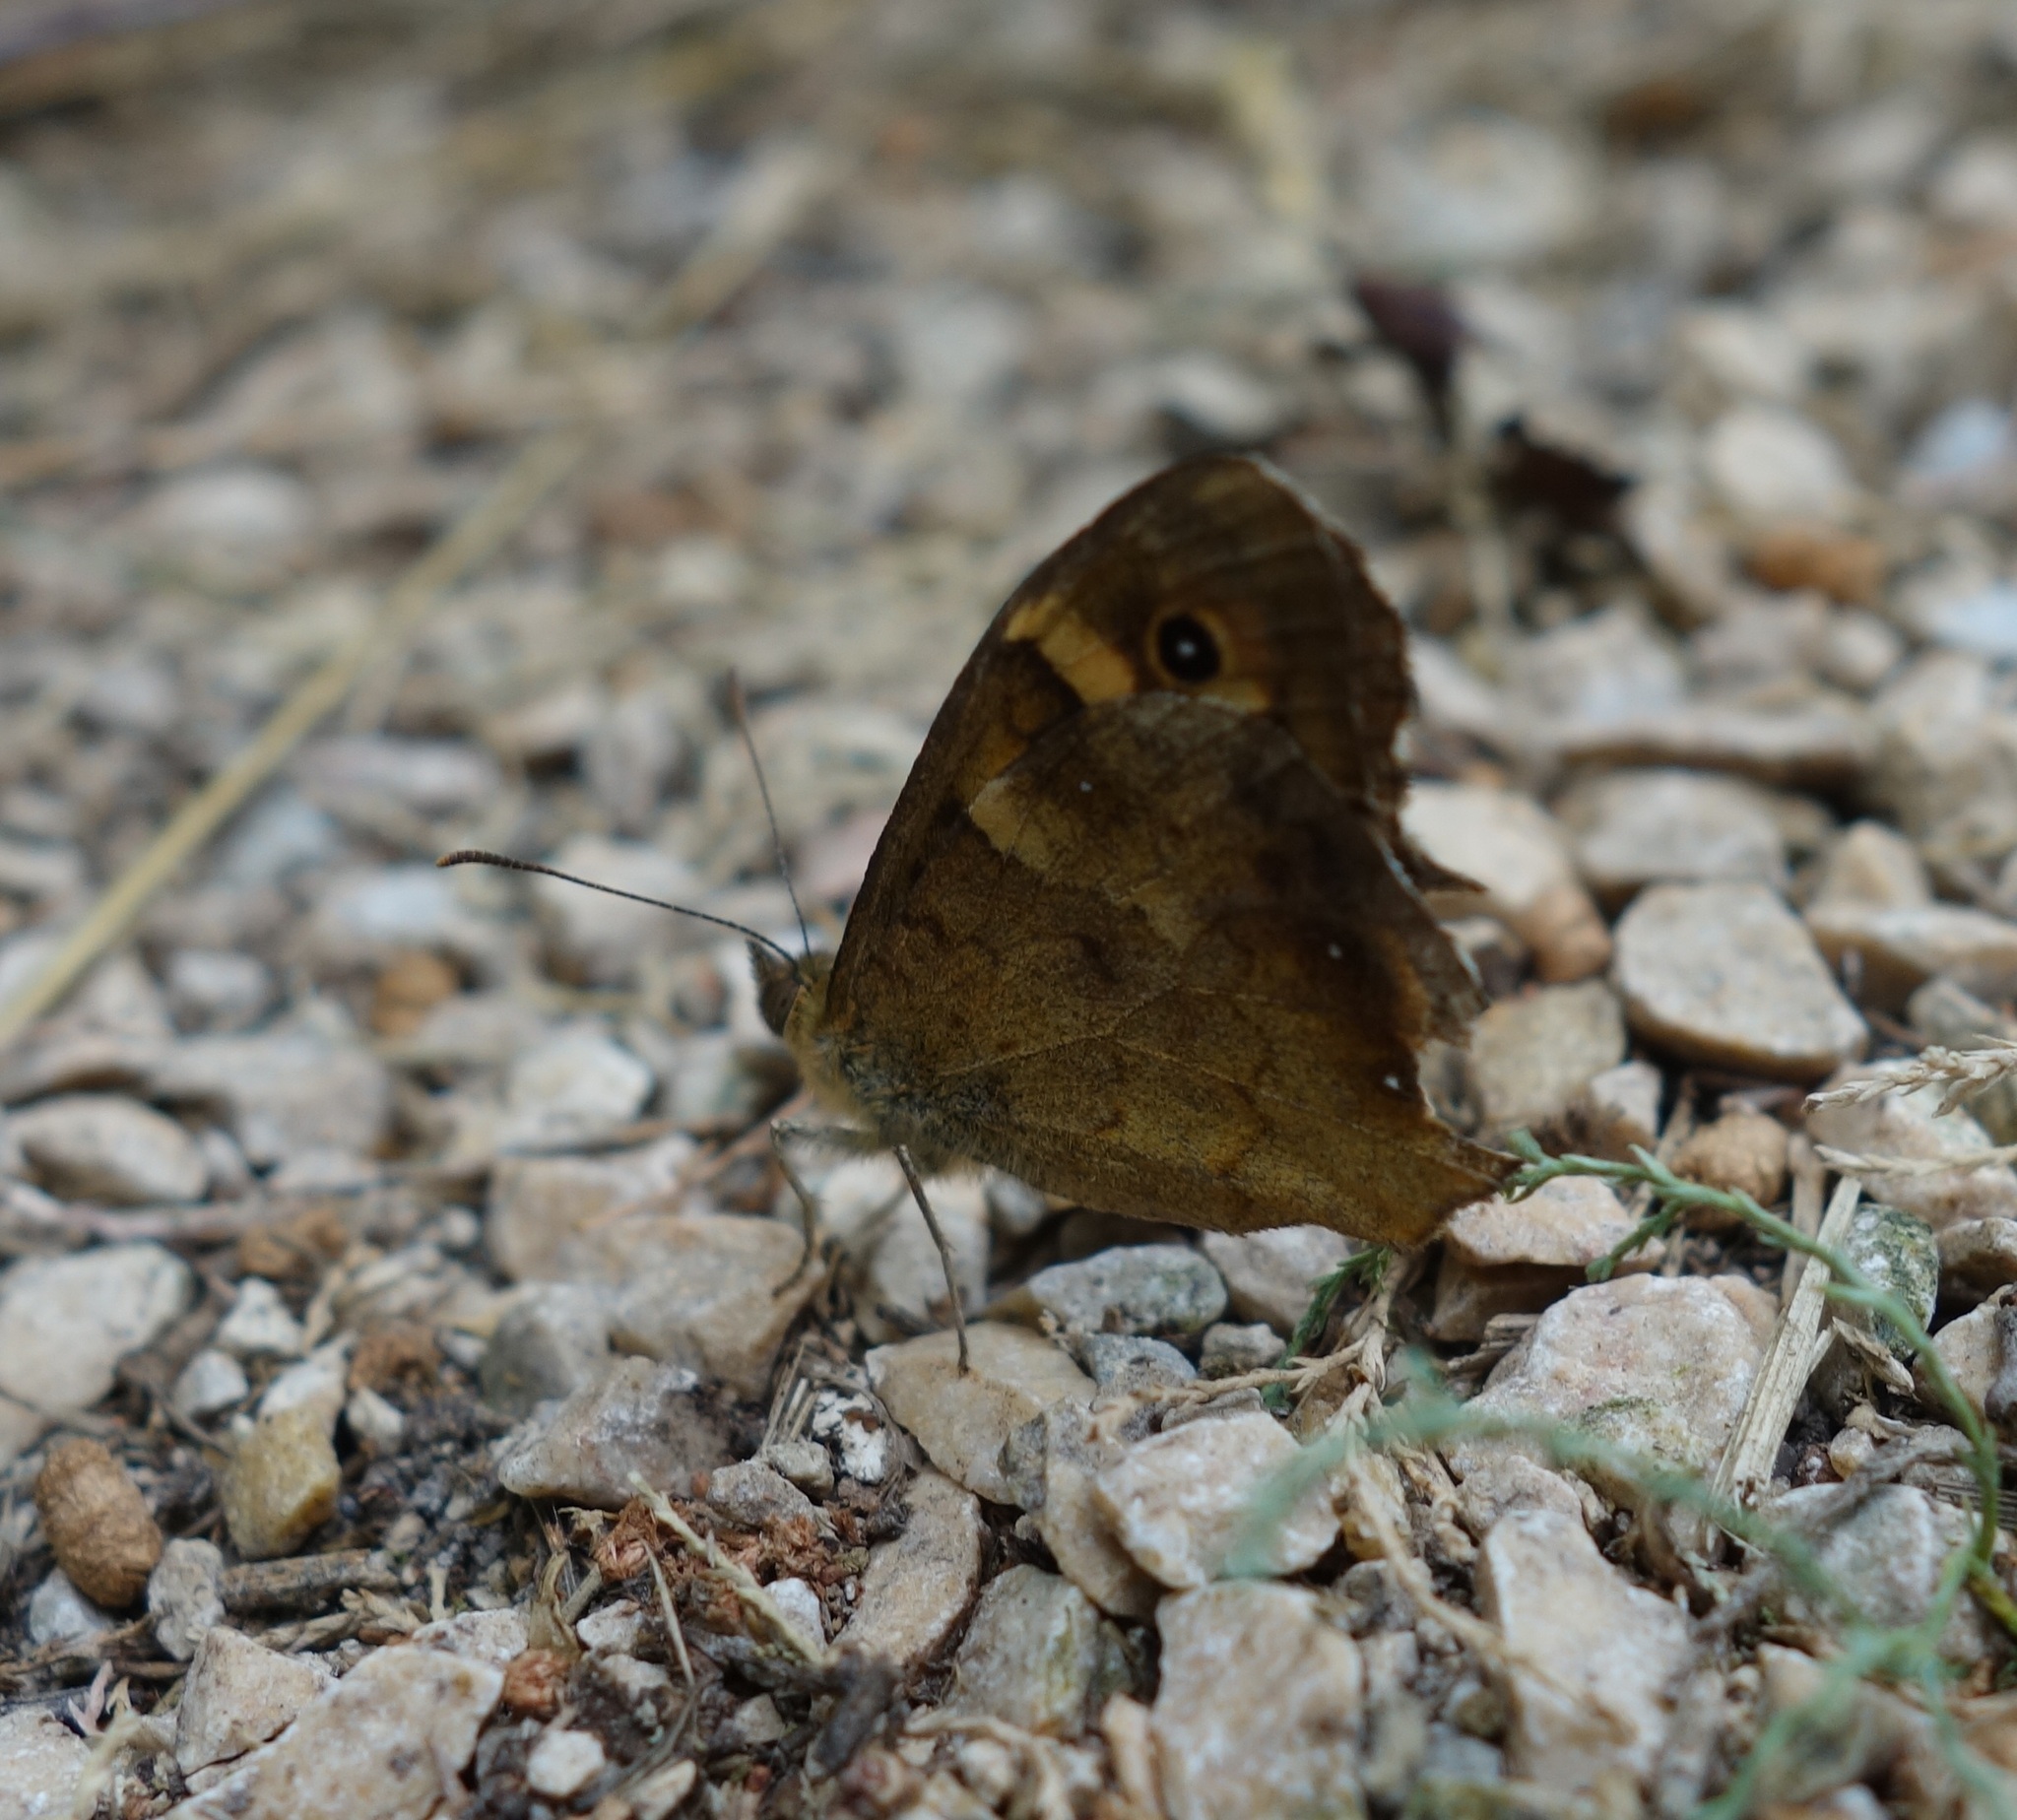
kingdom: Animalia
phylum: Arthropoda
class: Insecta
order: Lepidoptera
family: Nymphalidae
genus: Pararge
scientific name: Pararge aegeria
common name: Speckled wood
